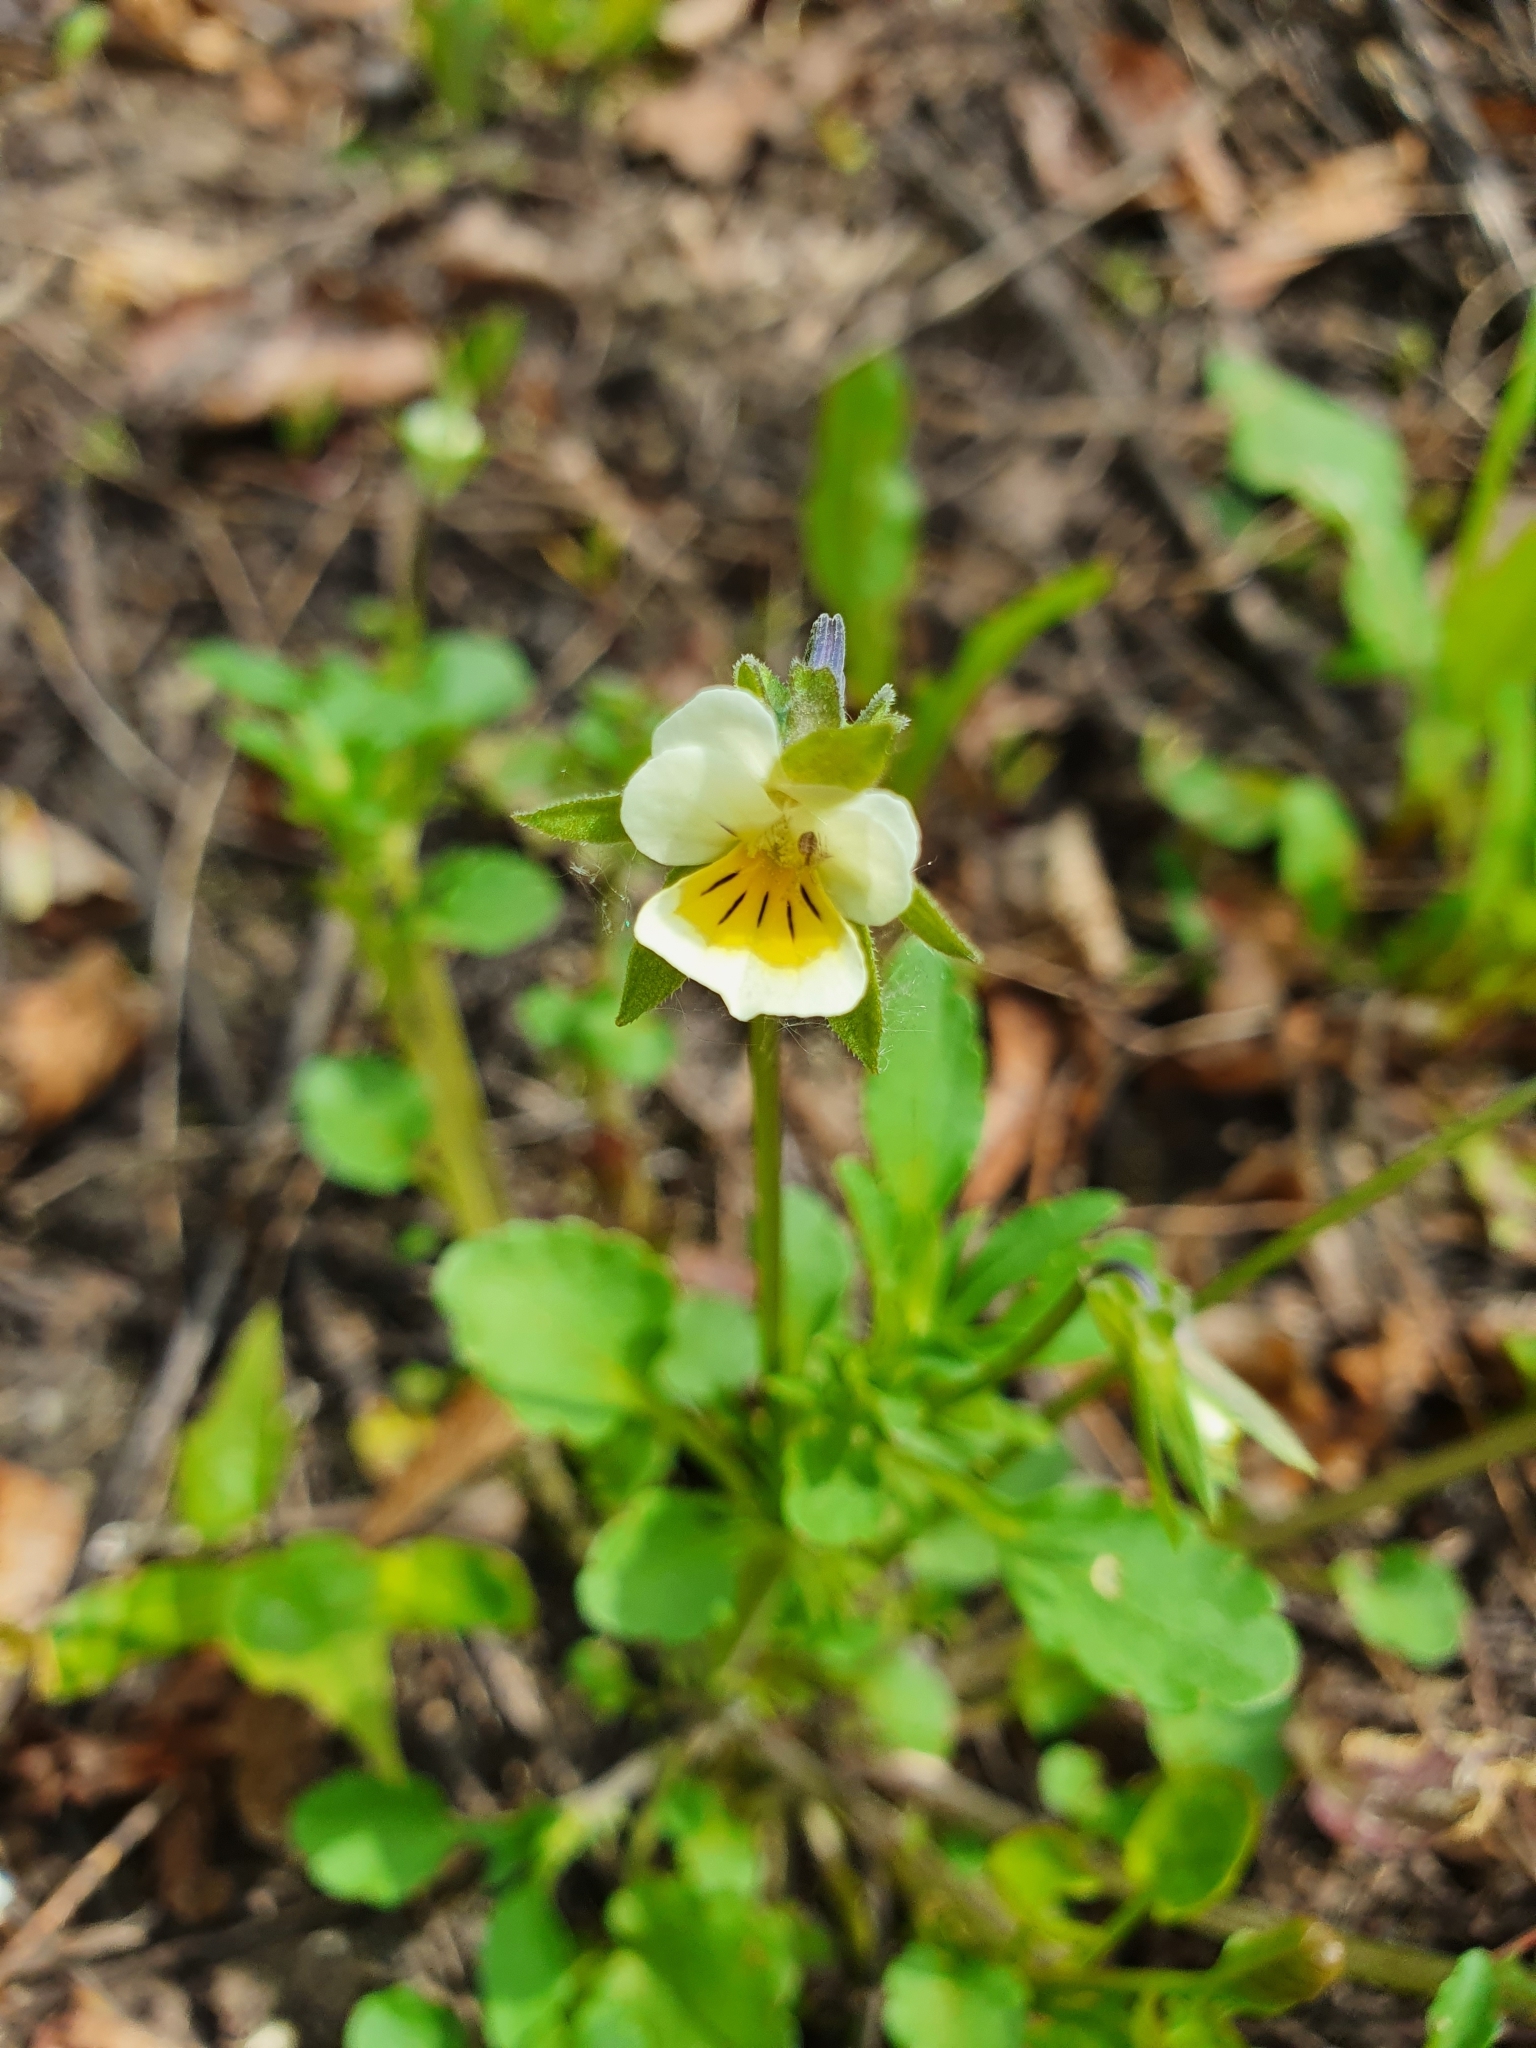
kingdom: Plantae
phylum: Tracheophyta
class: Magnoliopsida
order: Malpighiales
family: Violaceae
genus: Viola
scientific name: Viola arvensis
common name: Field pansy
